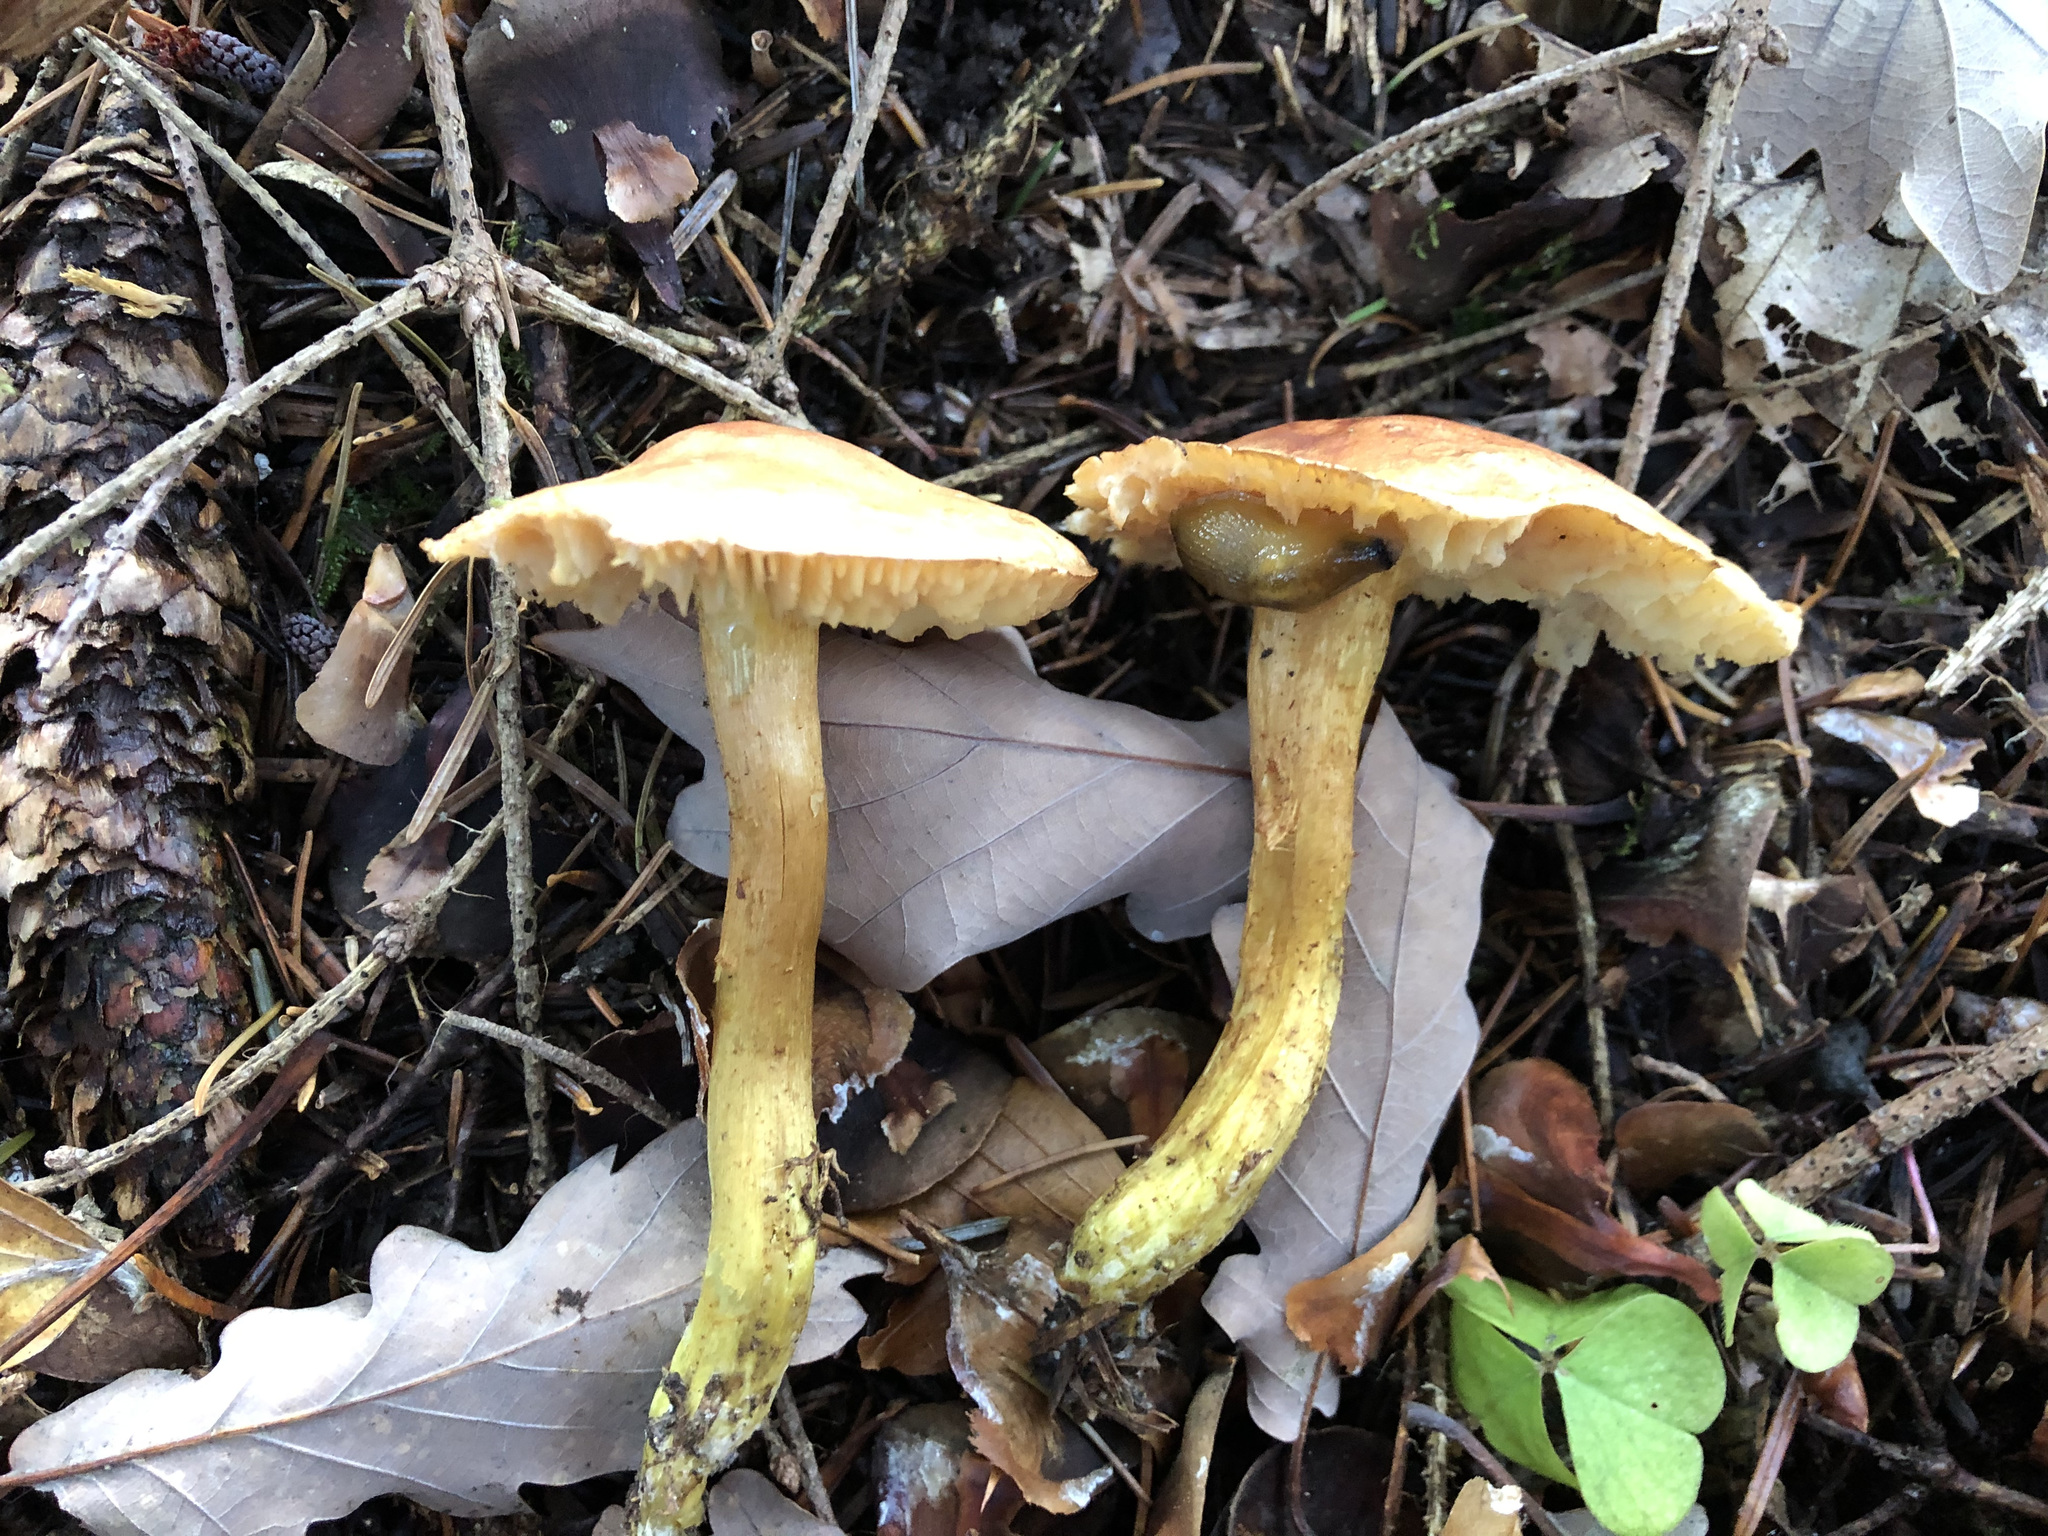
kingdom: Fungi
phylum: Basidiomycota
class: Agaricomycetes
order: Agaricales
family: Tricholomataceae
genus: Tricholoma
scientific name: Tricholoma sulphureum
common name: Stinky knight
